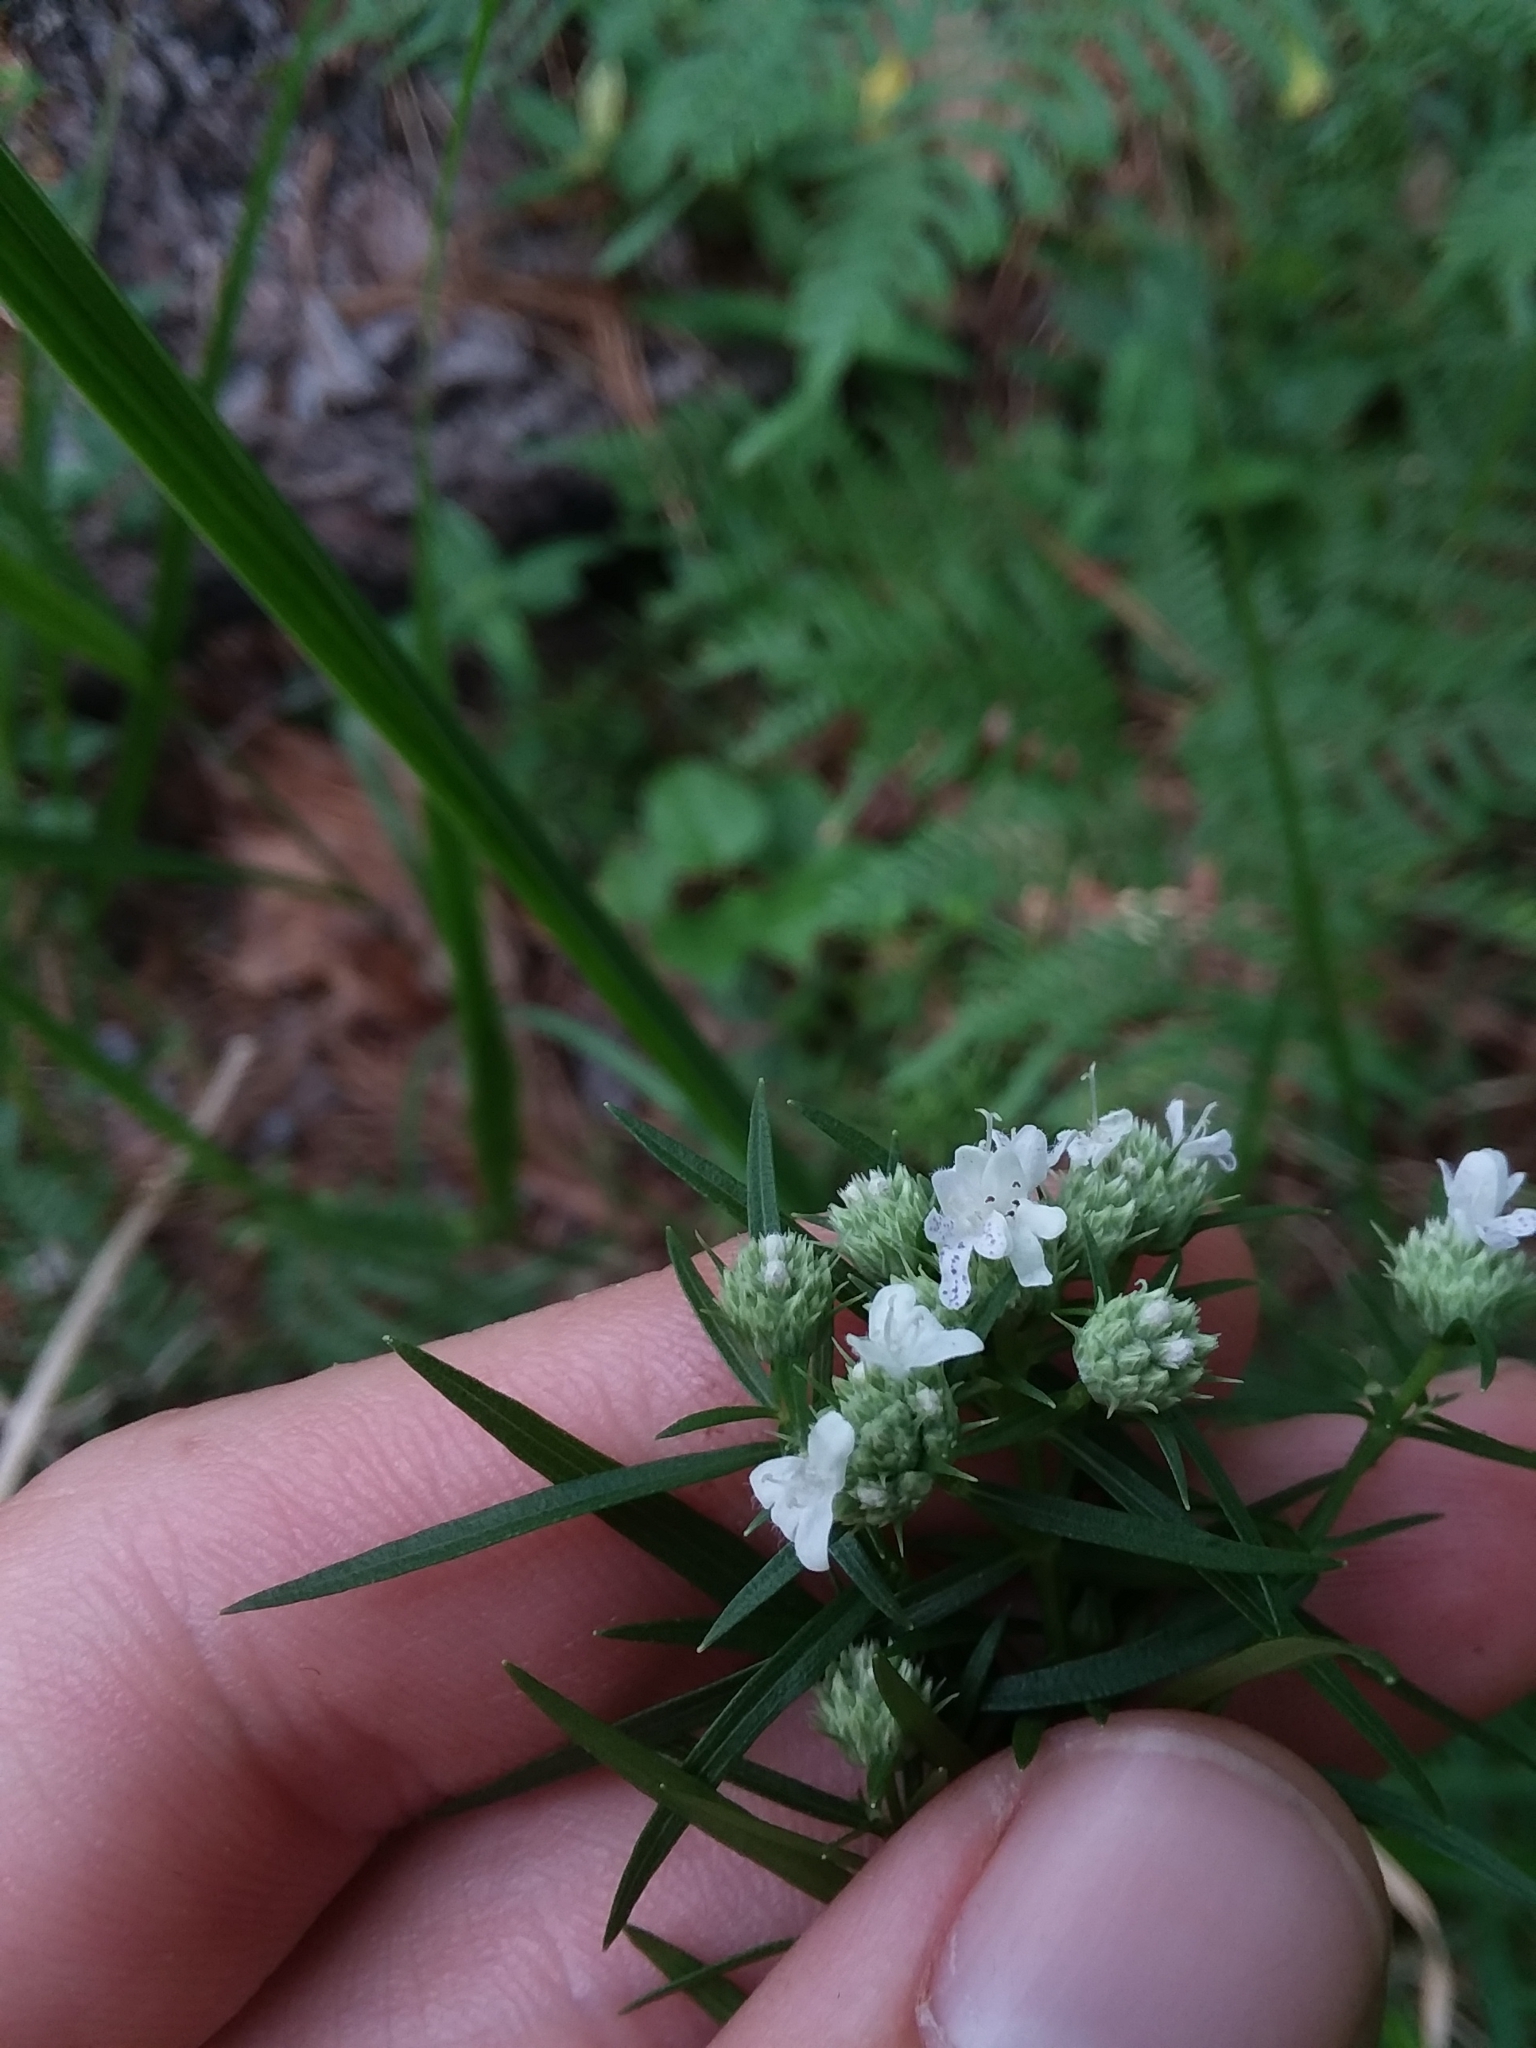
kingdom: Plantae
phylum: Tracheophyta
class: Magnoliopsida
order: Lamiales
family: Lamiaceae
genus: Pycnanthemum
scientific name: Pycnanthemum tenuifolium
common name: Narrow-leaf mountain-mint
